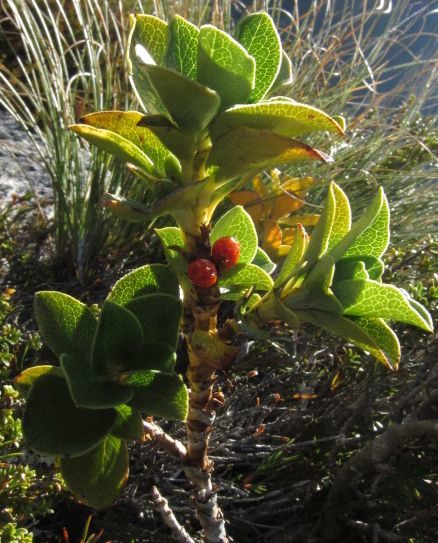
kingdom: Plantae
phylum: Tracheophyta
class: Magnoliopsida
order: Gentianales
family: Rubiaceae
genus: Coprosma
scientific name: Coprosma serrulata
